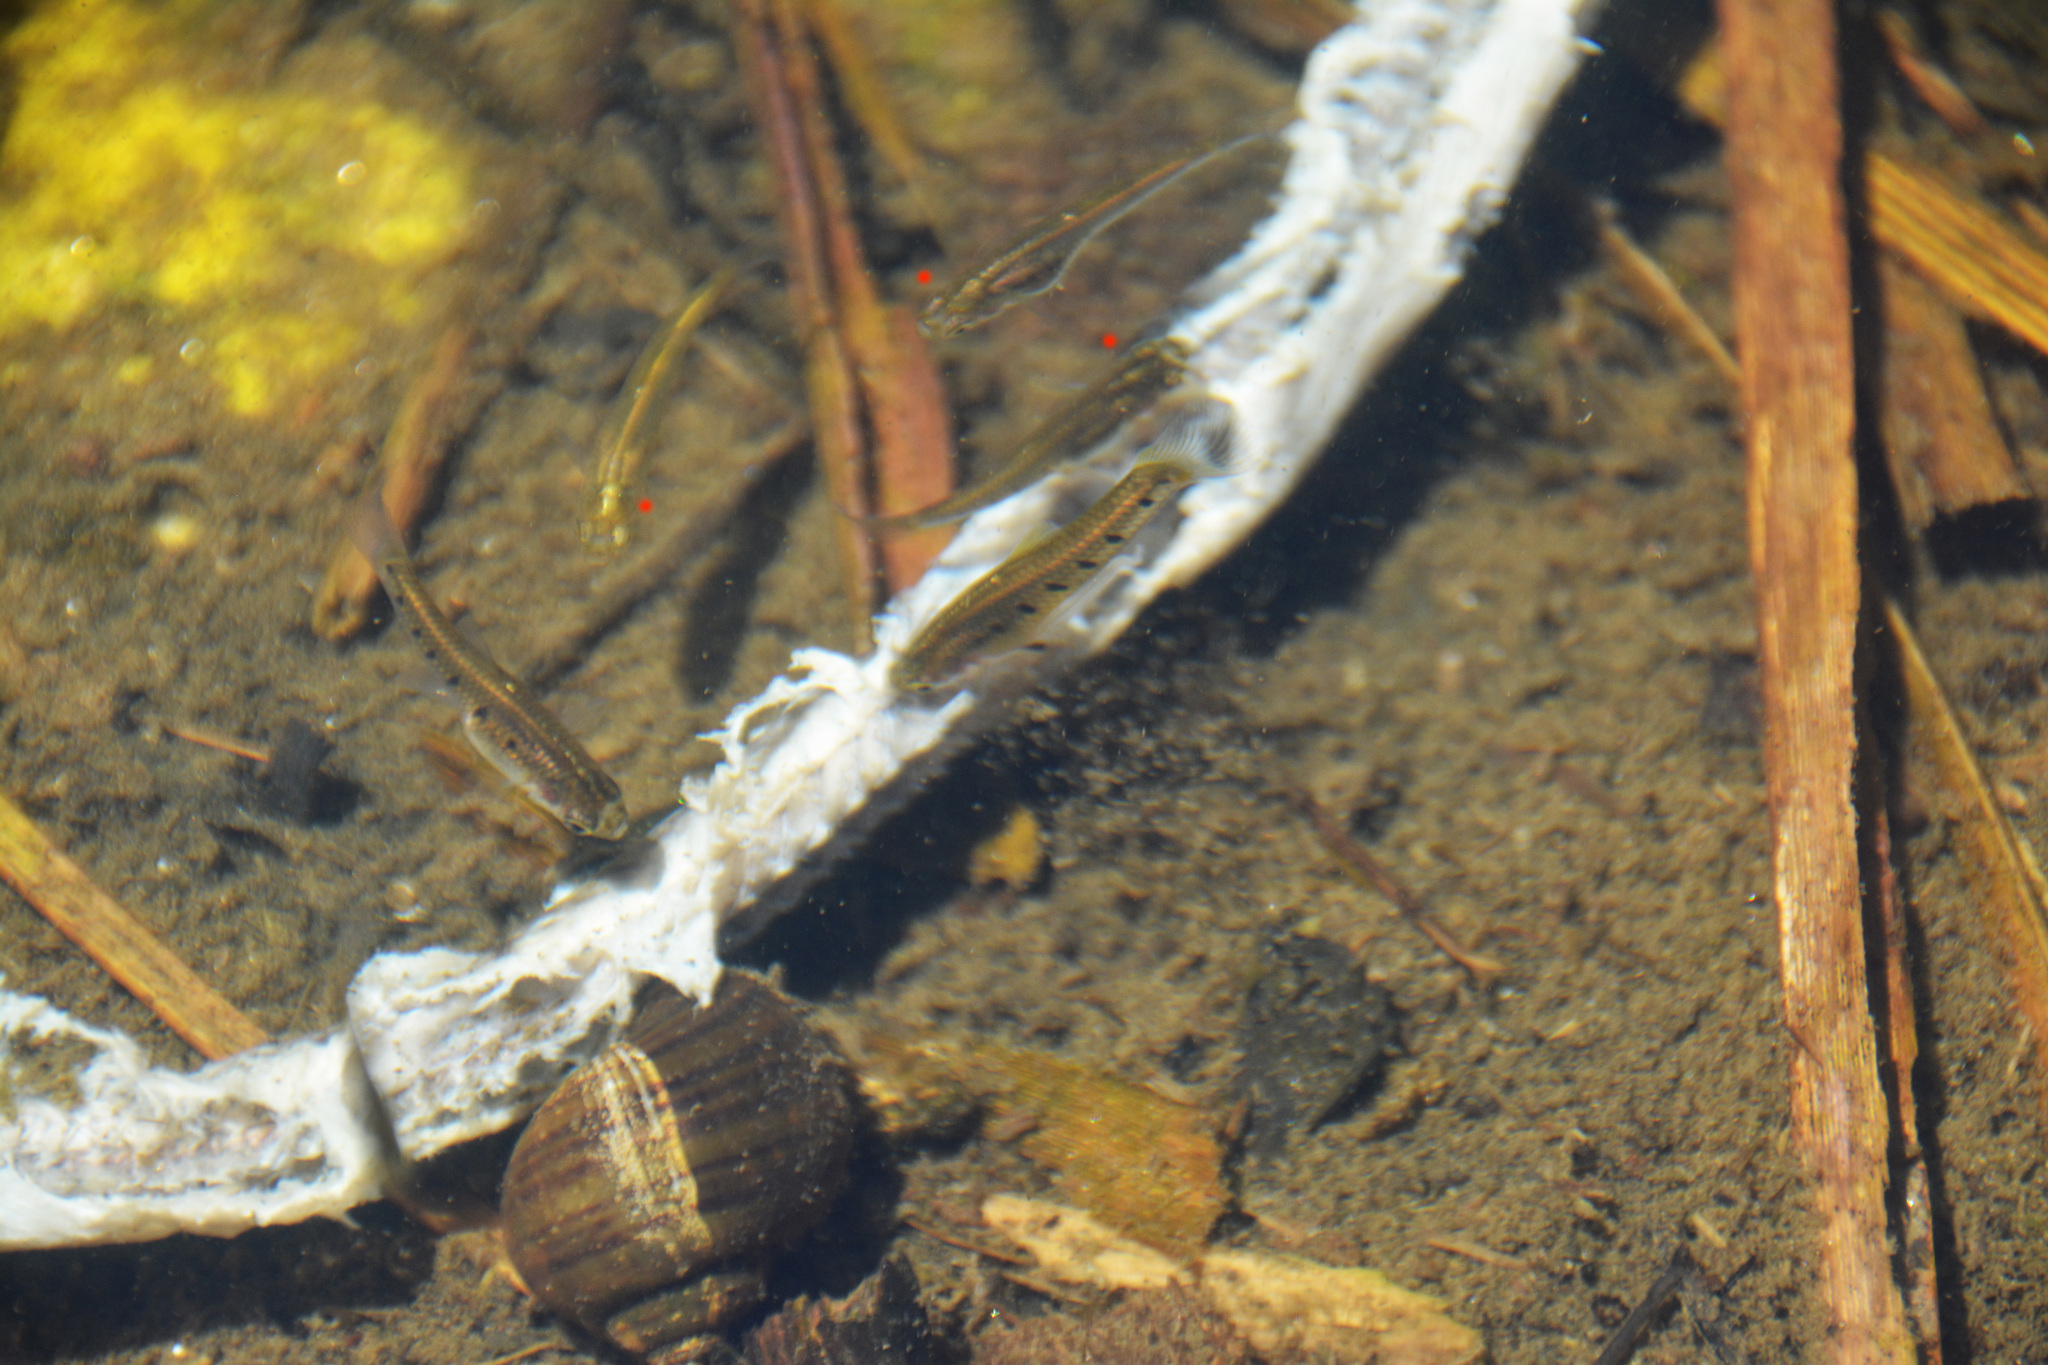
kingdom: Animalia
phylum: Chordata
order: Cyprinodontiformes
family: Anablepidae
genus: Jenynsia
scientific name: Jenynsia lineata
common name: Onesided livebearer
